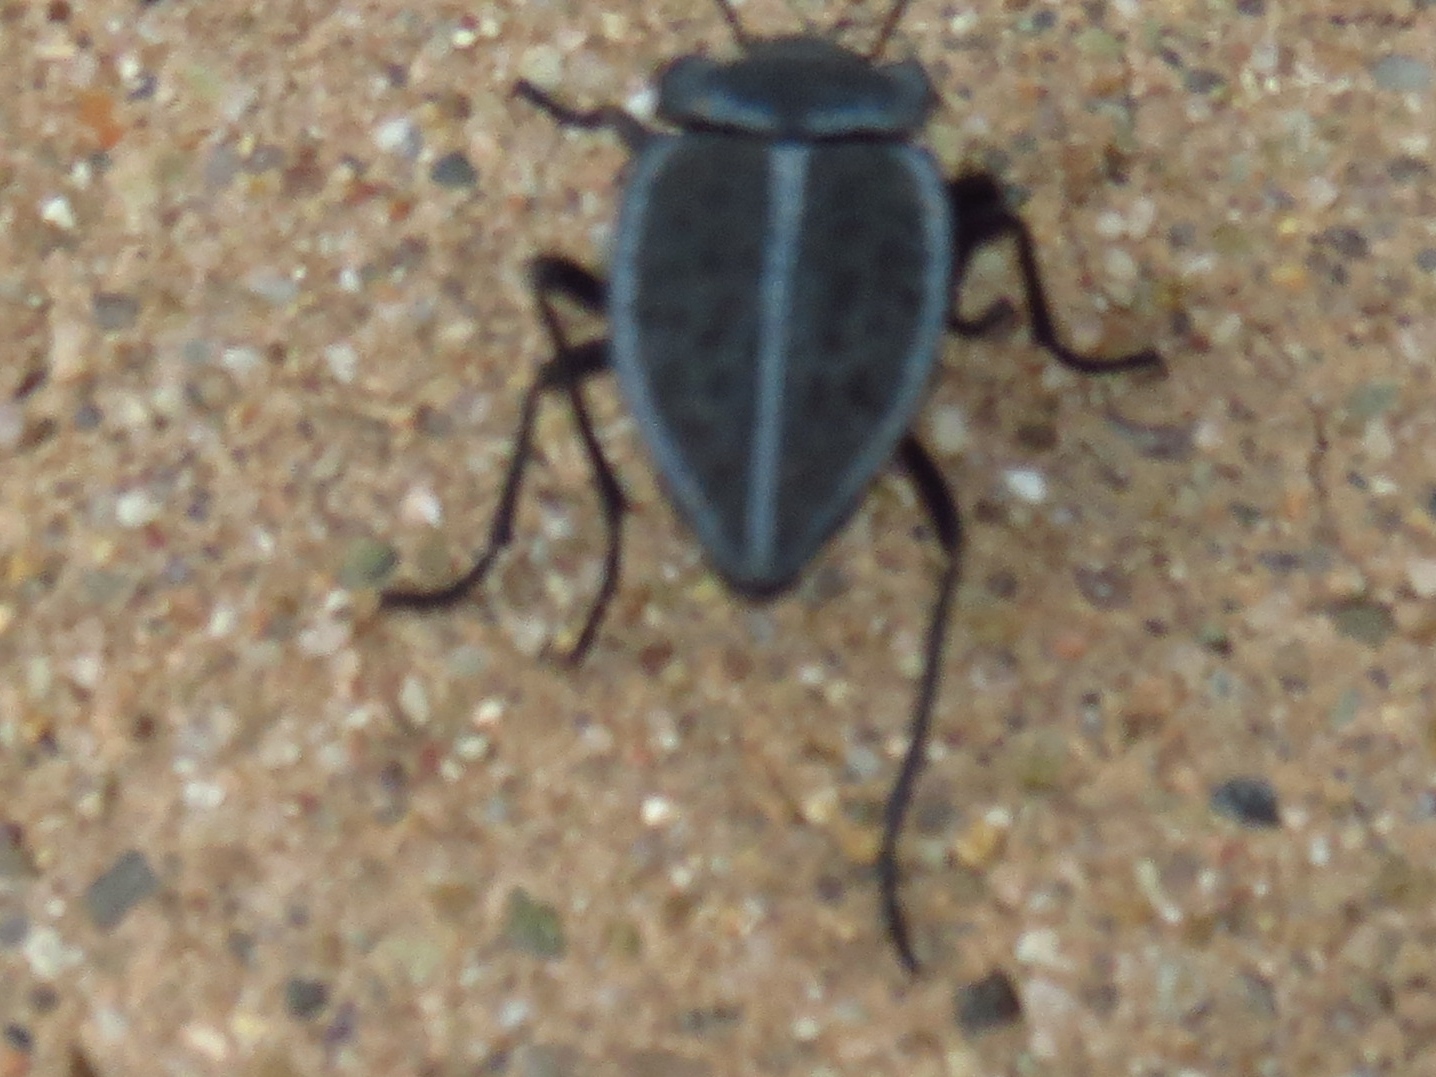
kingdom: Animalia
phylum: Arthropoda
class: Insecta
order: Coleoptera
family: Tenebrionidae
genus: Stenomorpha
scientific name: Stenomorpha opaca
